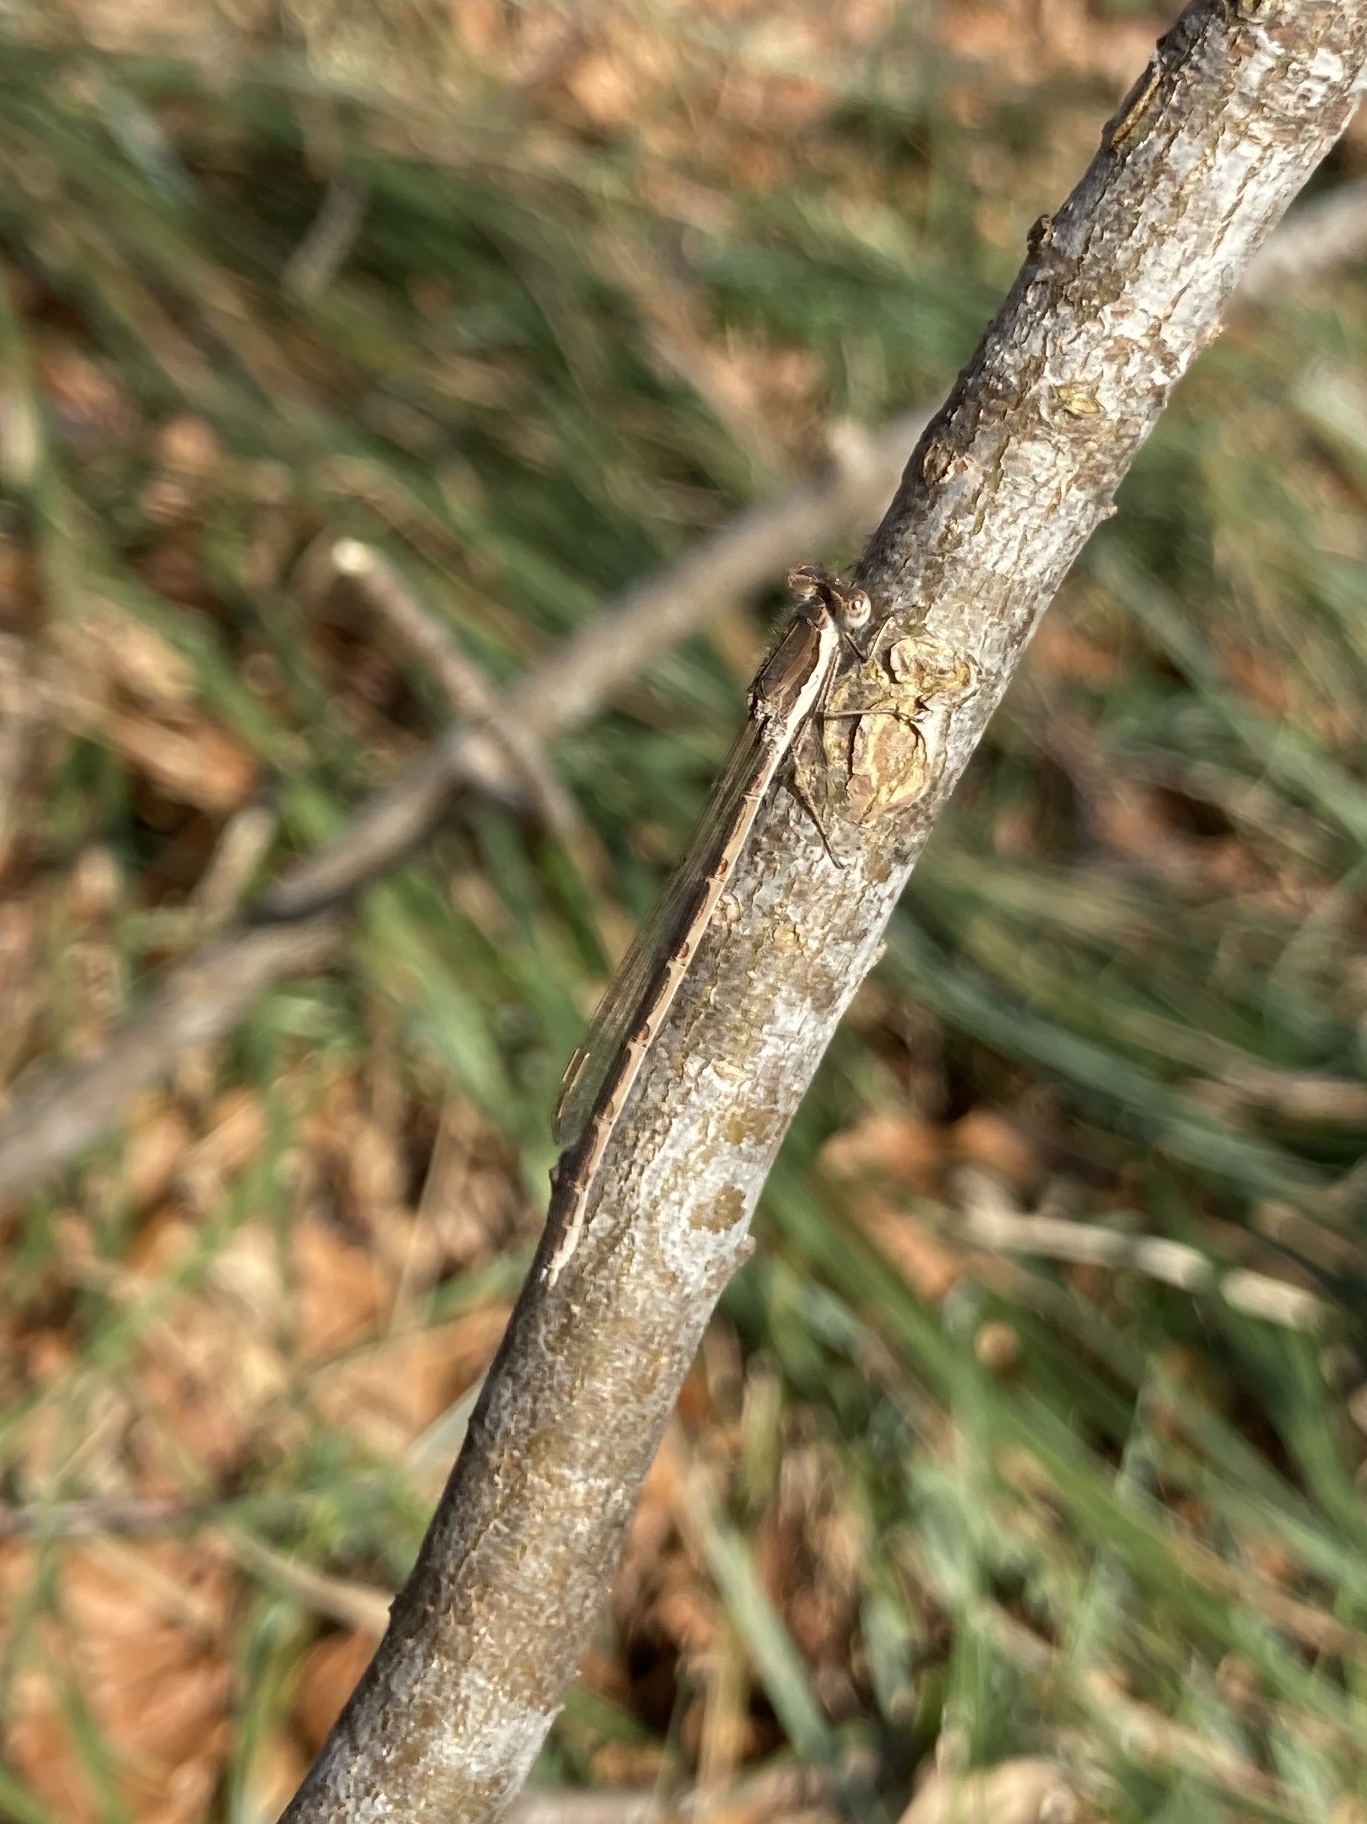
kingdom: Animalia
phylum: Arthropoda
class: Insecta
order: Odonata
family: Lestidae
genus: Sympecma
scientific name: Sympecma fusca
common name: Common winter damsel
